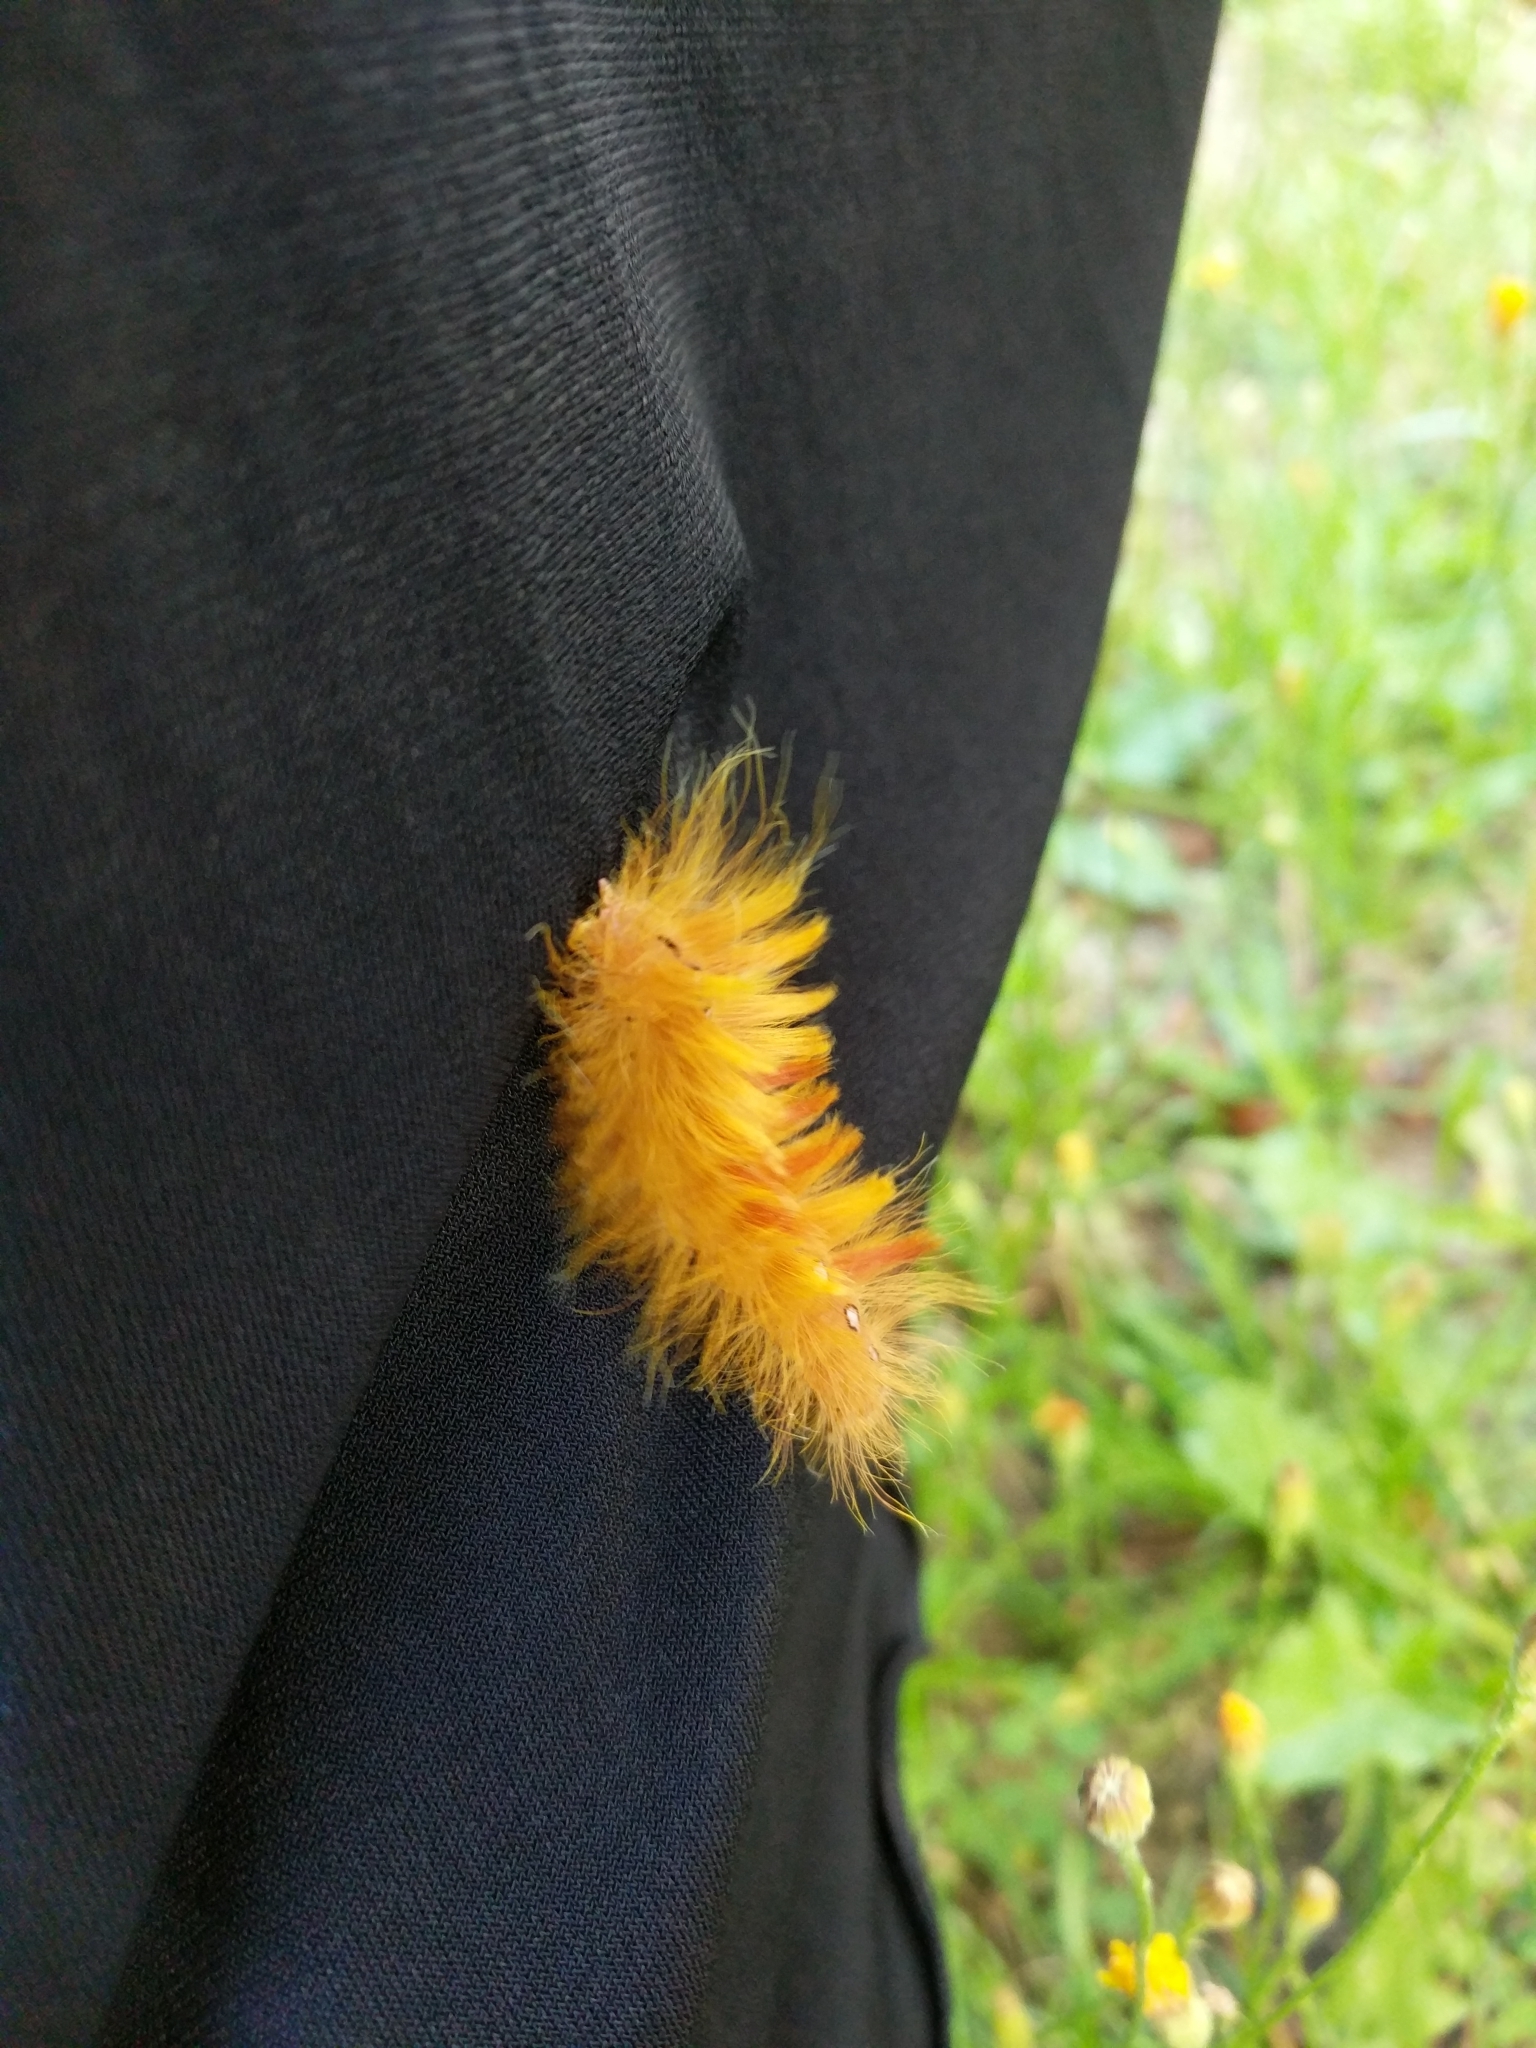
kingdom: Animalia
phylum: Arthropoda
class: Insecta
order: Lepidoptera
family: Noctuidae
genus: Acronicta
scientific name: Acronicta aceris
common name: Sycamore
